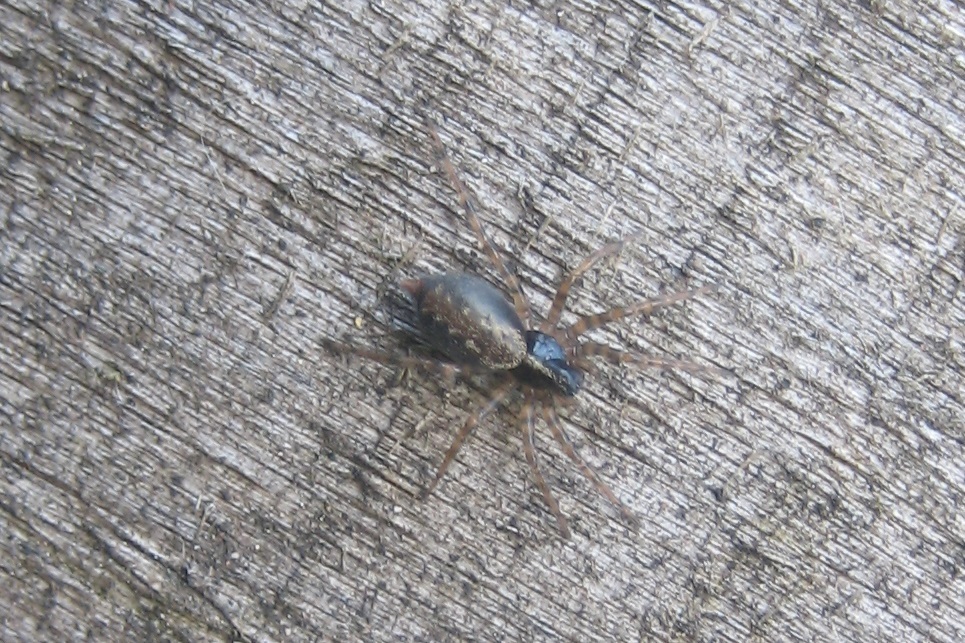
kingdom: Animalia
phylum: Arthropoda
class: Arachnida
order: Araneae
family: Agelenidae
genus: Textrix
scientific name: Textrix denticulata
